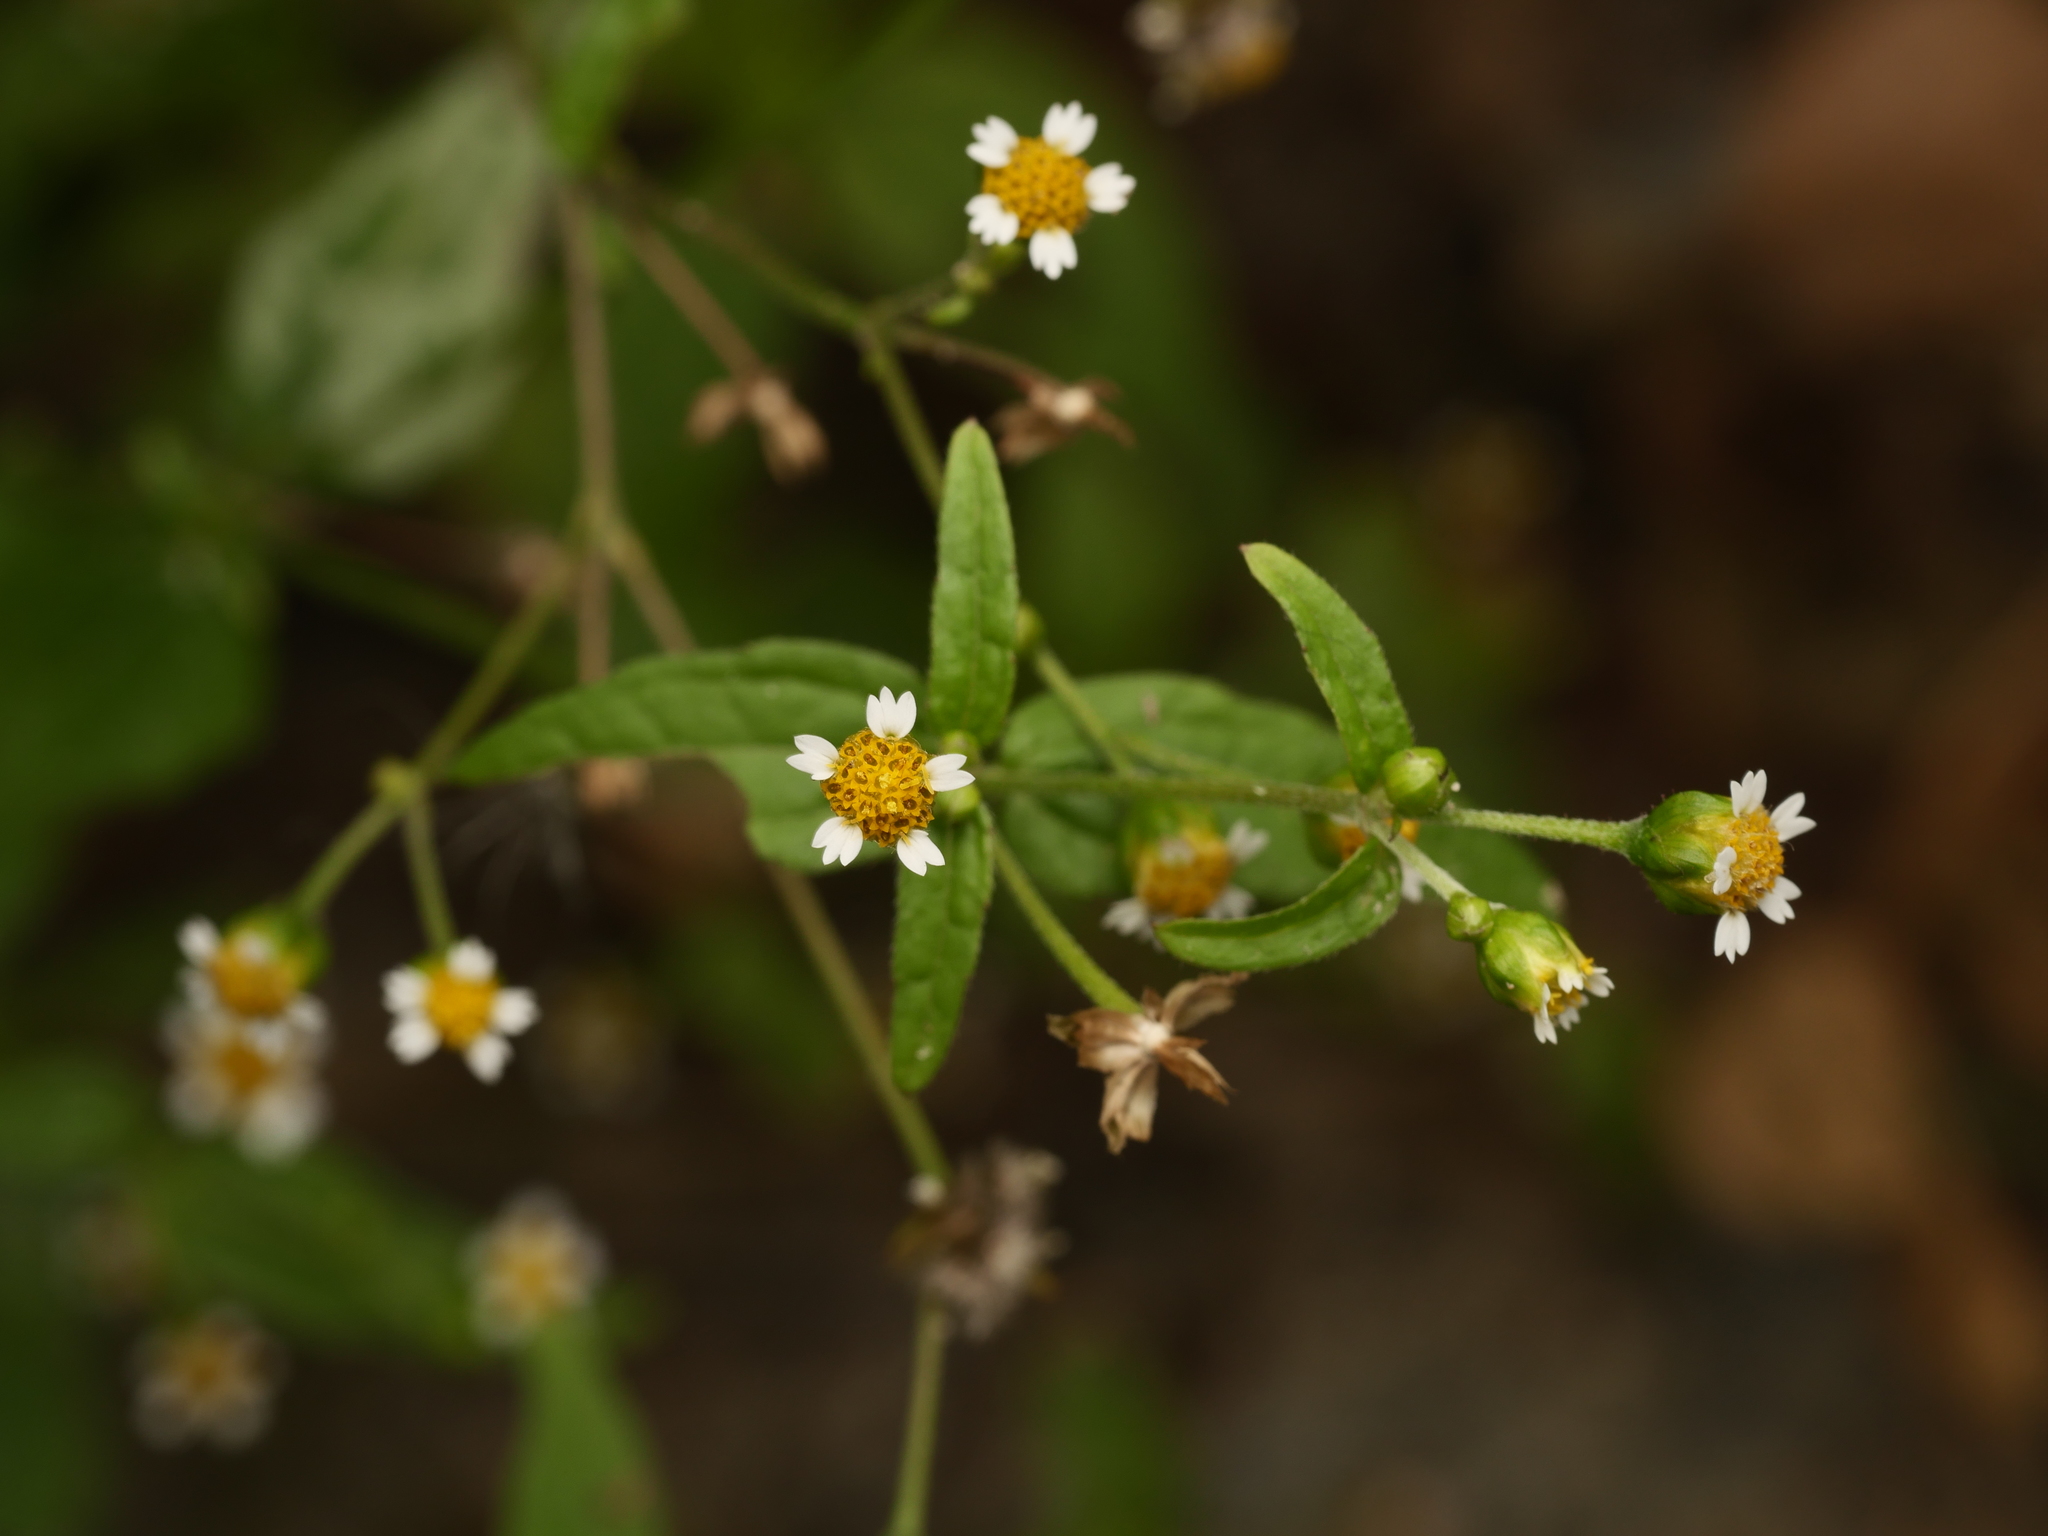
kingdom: Plantae
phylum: Tracheophyta
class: Magnoliopsida
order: Asterales
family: Asteraceae
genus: Galinsoga
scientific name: Galinsoga parviflora
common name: Gallant soldier
